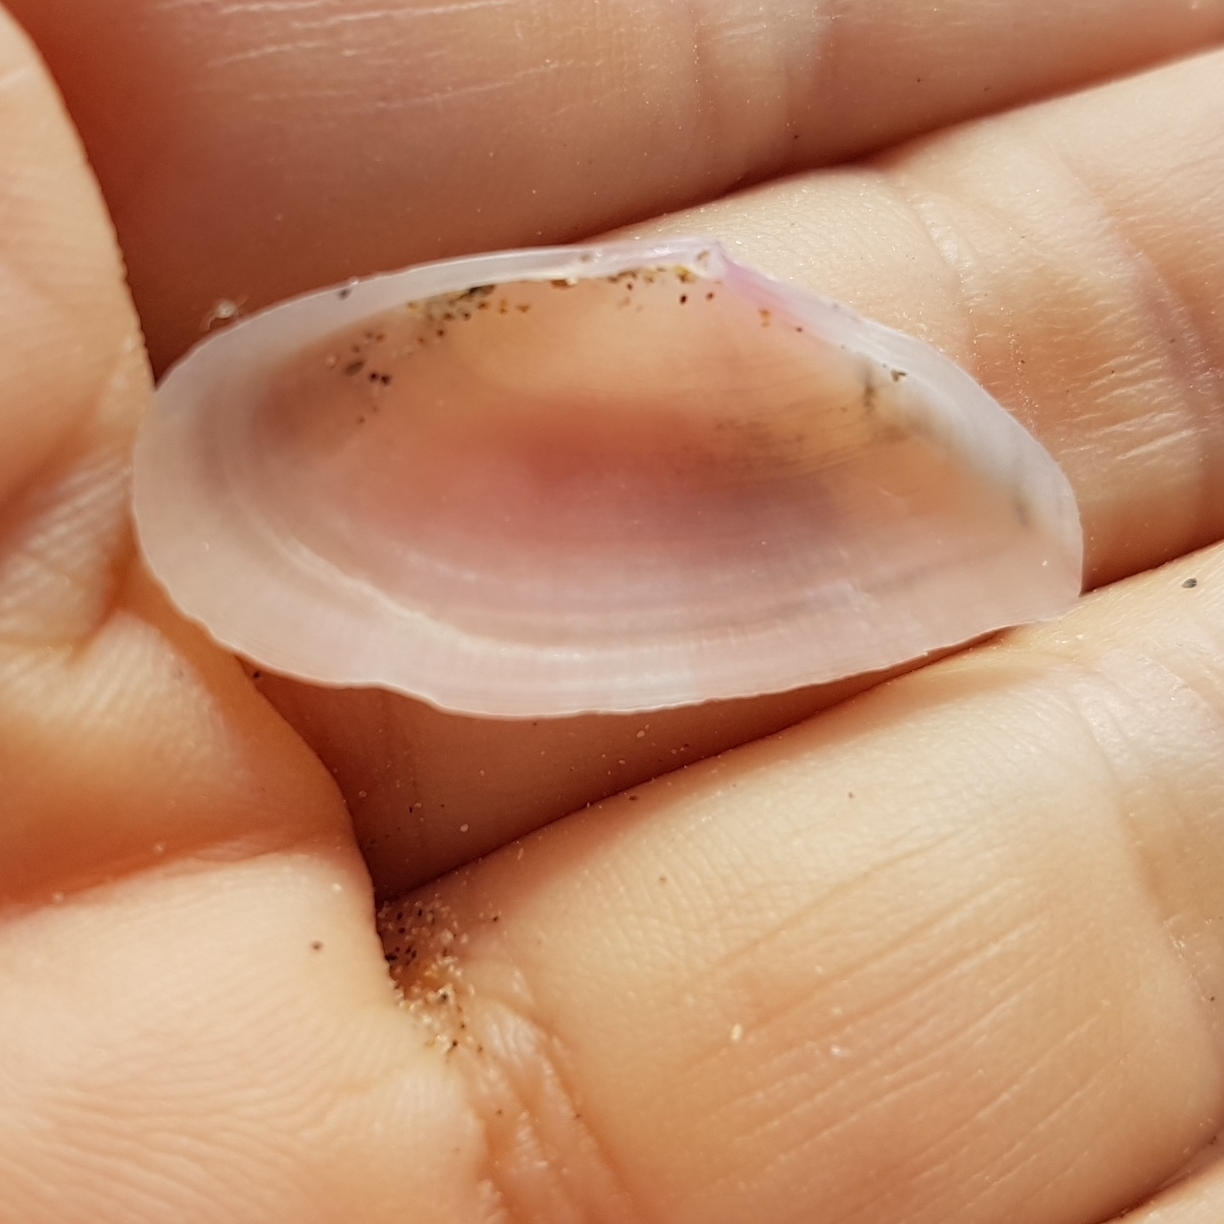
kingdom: Animalia
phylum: Mollusca
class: Bivalvia
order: Cardiida
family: Tellinidae
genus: Moerella
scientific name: Moerella pulchella
